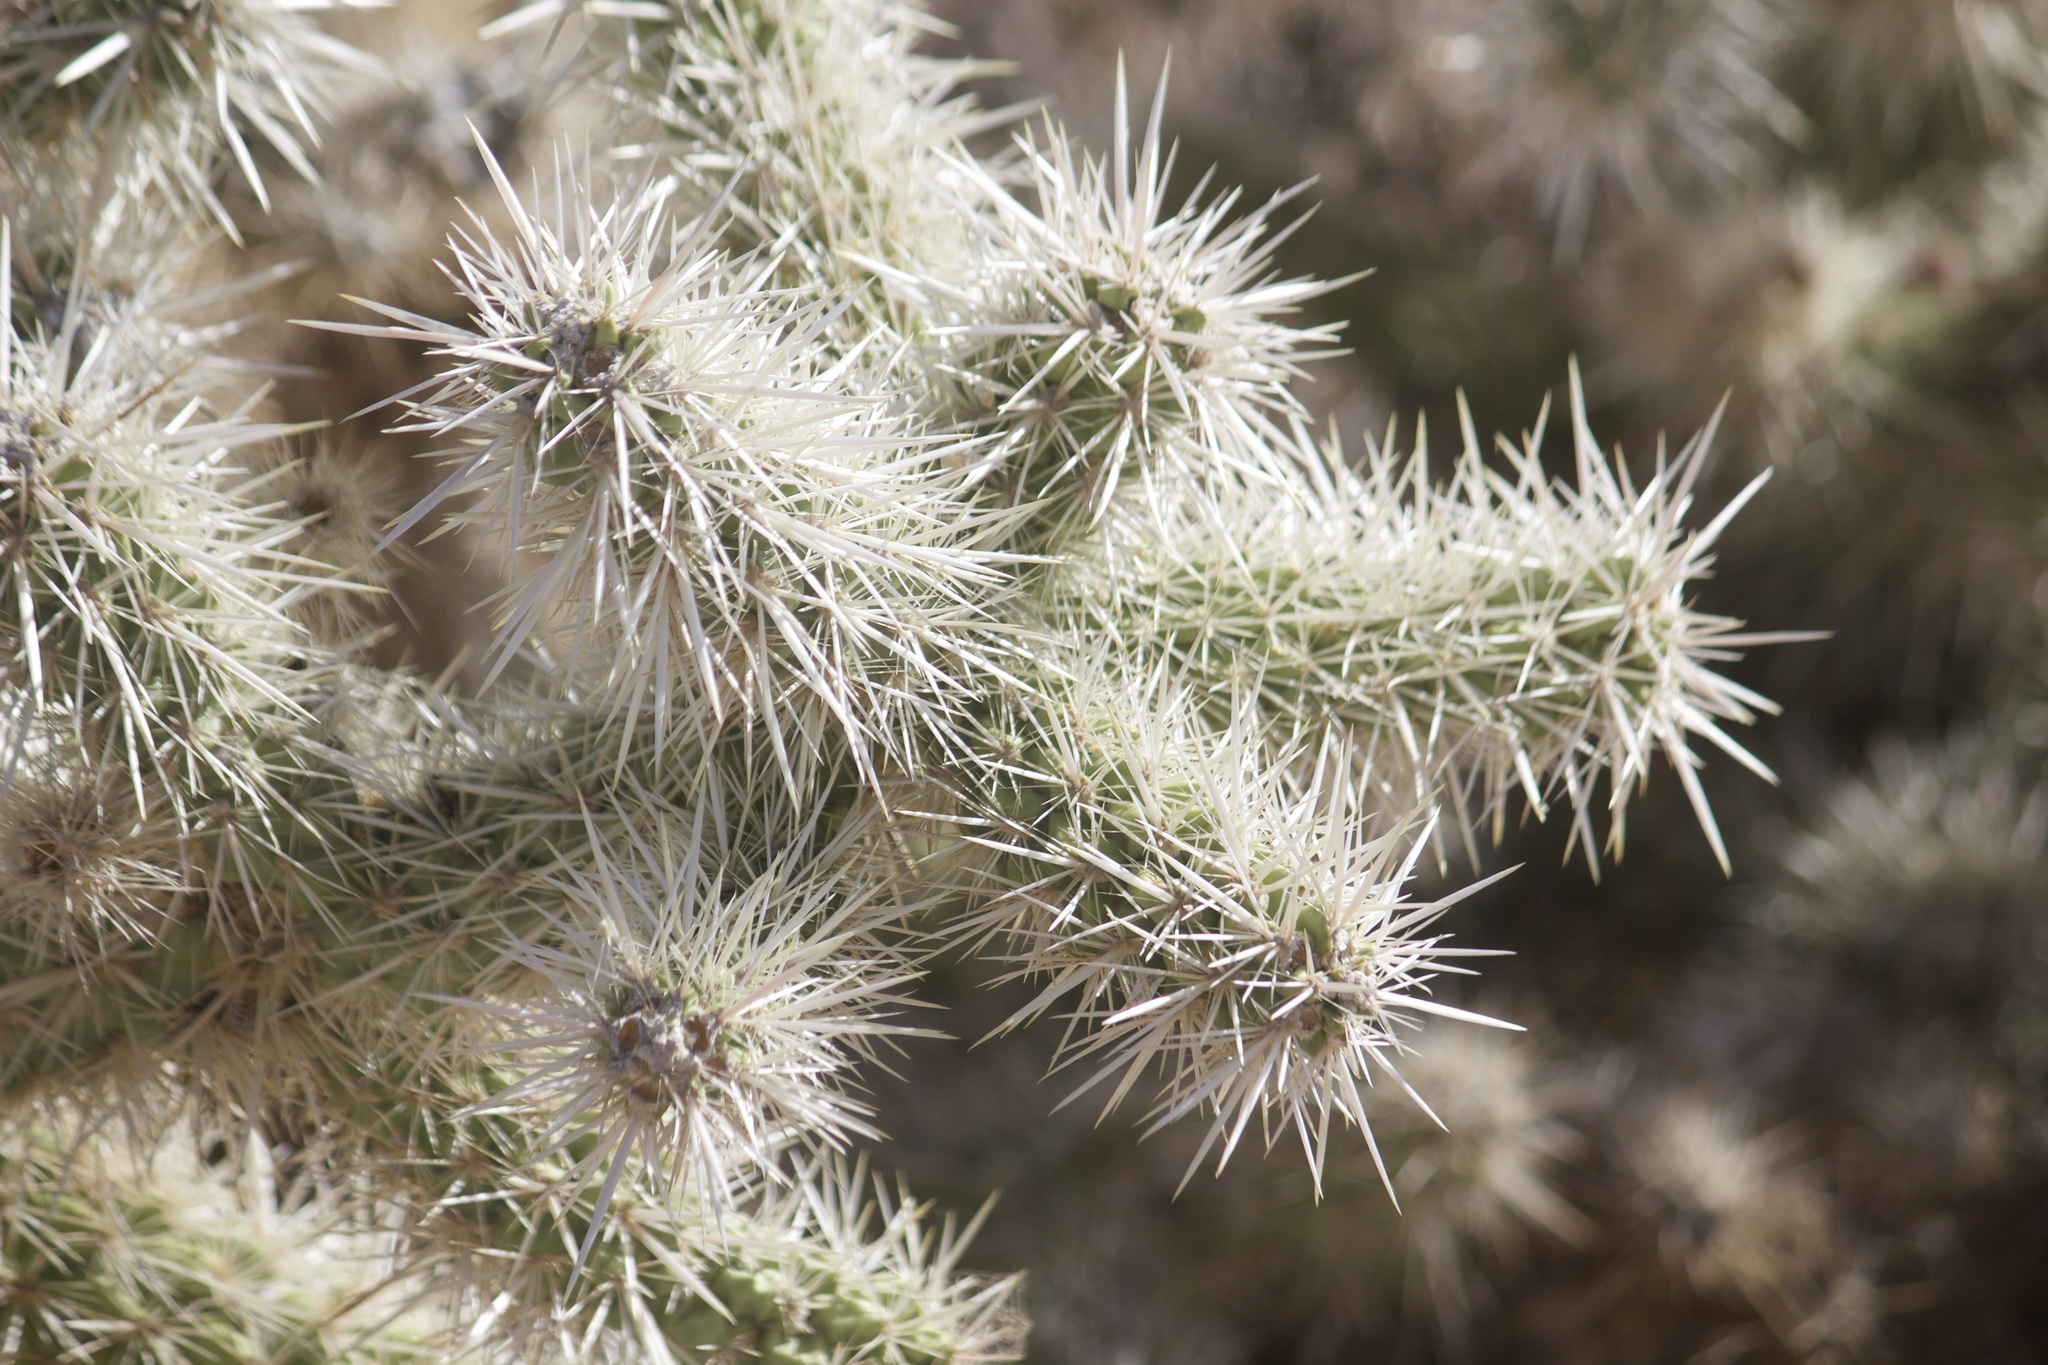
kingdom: Plantae
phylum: Tracheophyta
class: Magnoliopsida
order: Caryophyllales
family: Cactaceae
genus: Cylindropuntia
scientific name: Cylindropuntia echinocarpa
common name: Ground cholla
